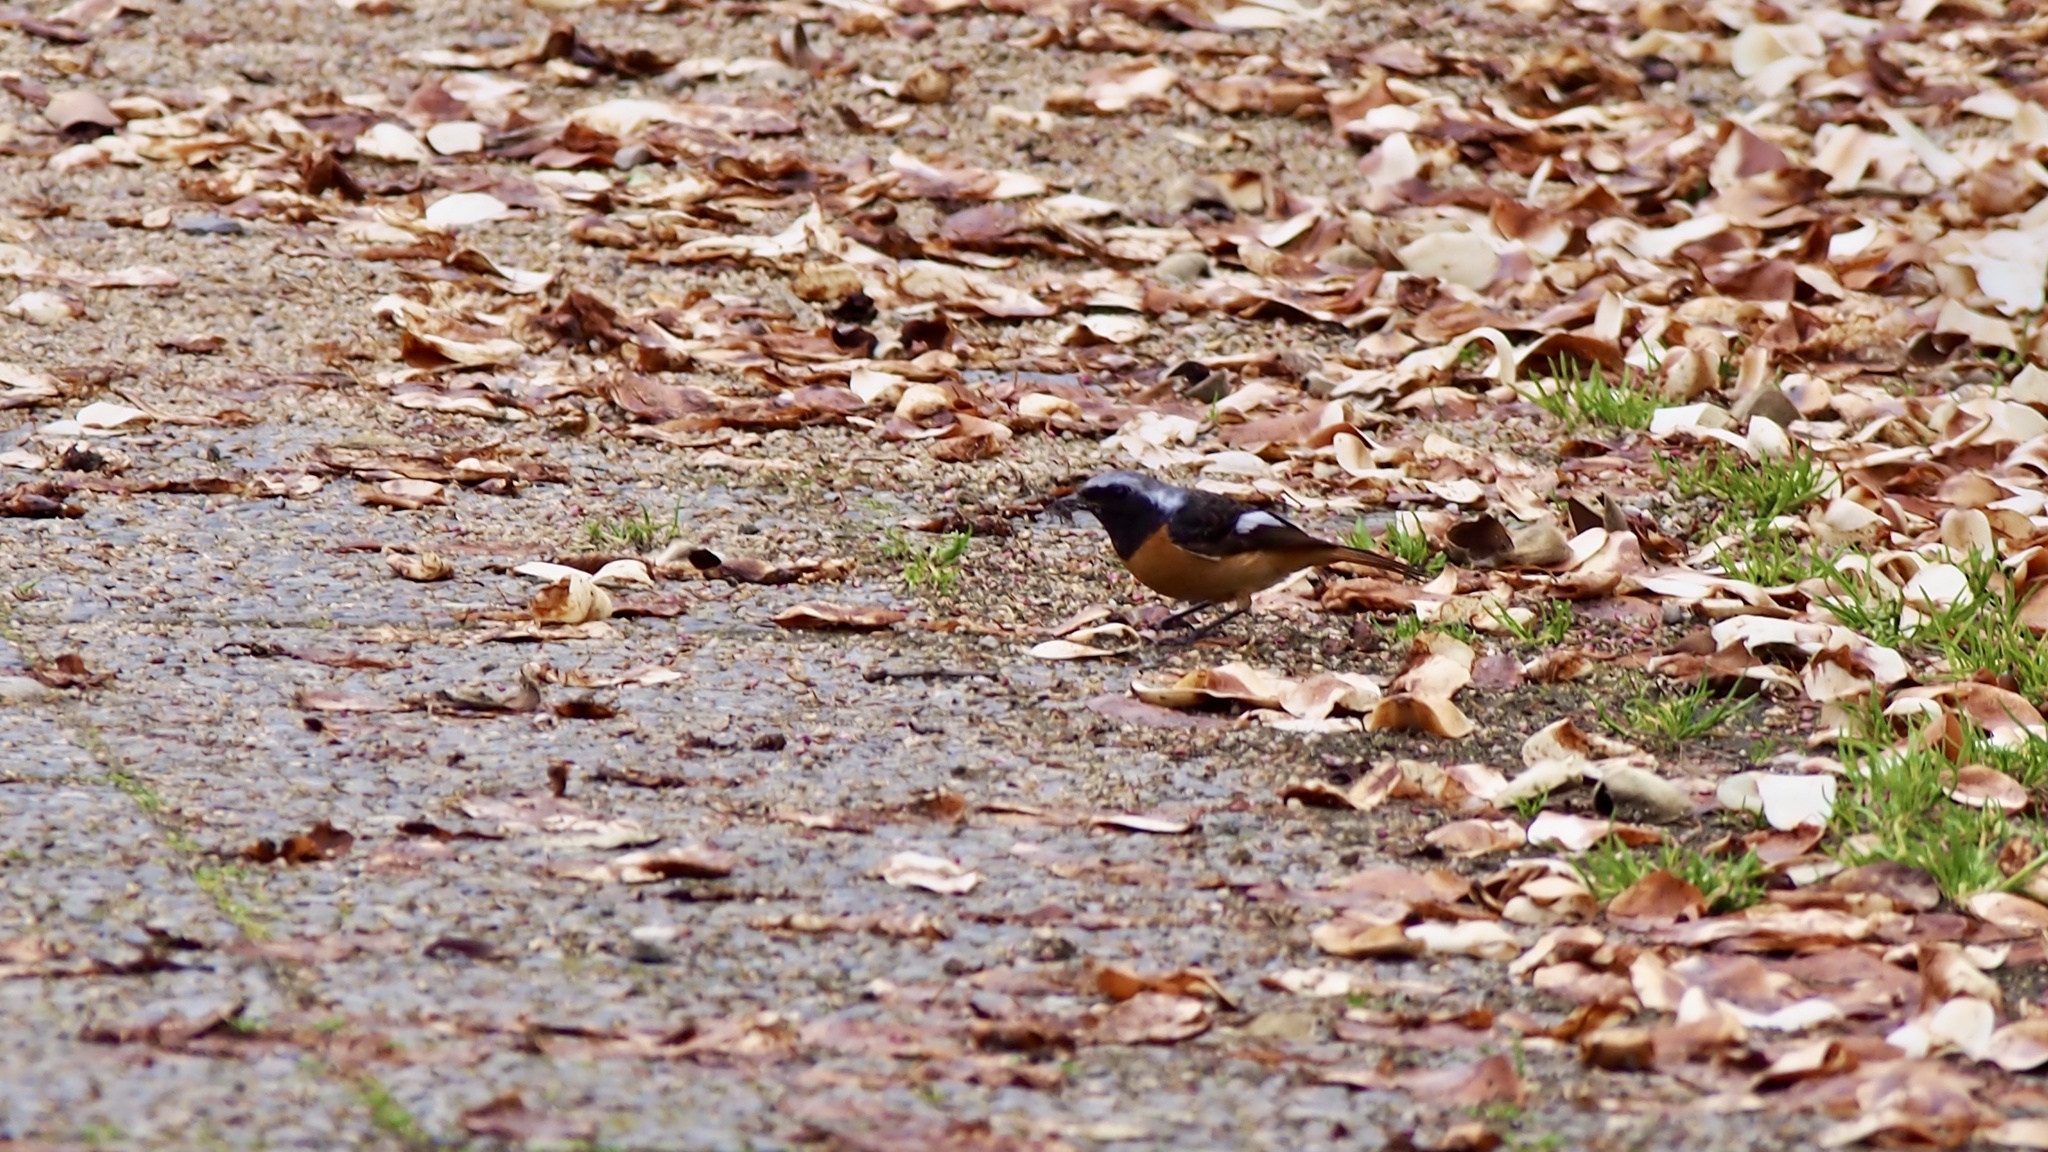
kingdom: Animalia
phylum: Chordata
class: Aves
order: Passeriformes
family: Muscicapidae
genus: Phoenicurus
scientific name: Phoenicurus auroreus
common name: Daurian redstart
